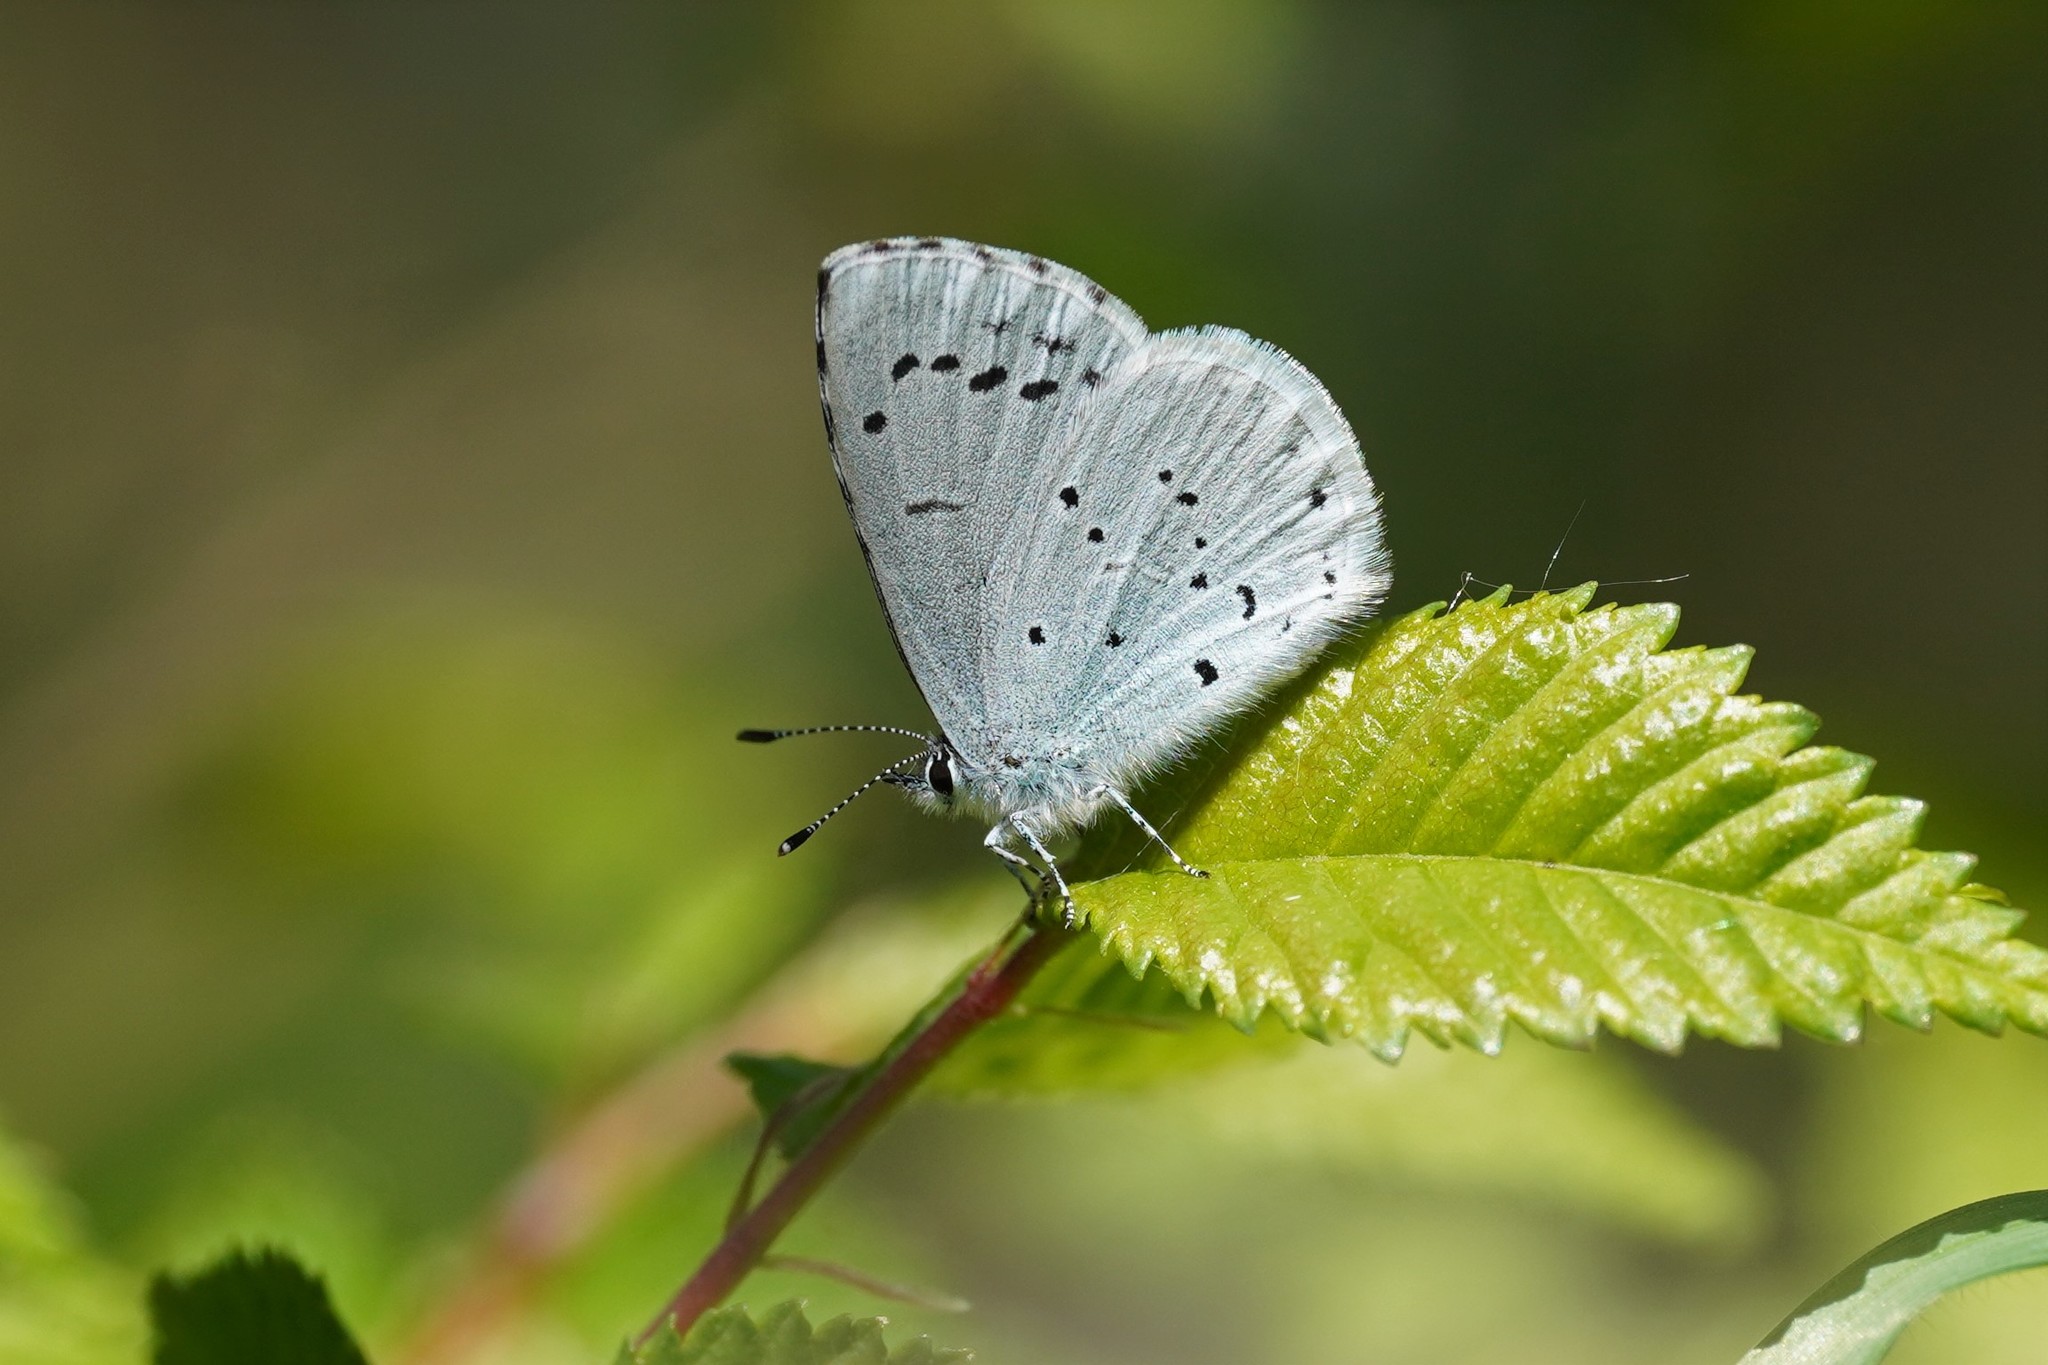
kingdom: Animalia
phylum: Arthropoda
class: Insecta
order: Lepidoptera
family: Lycaenidae
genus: Celastrina
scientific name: Celastrina argiolus
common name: Holly blue
